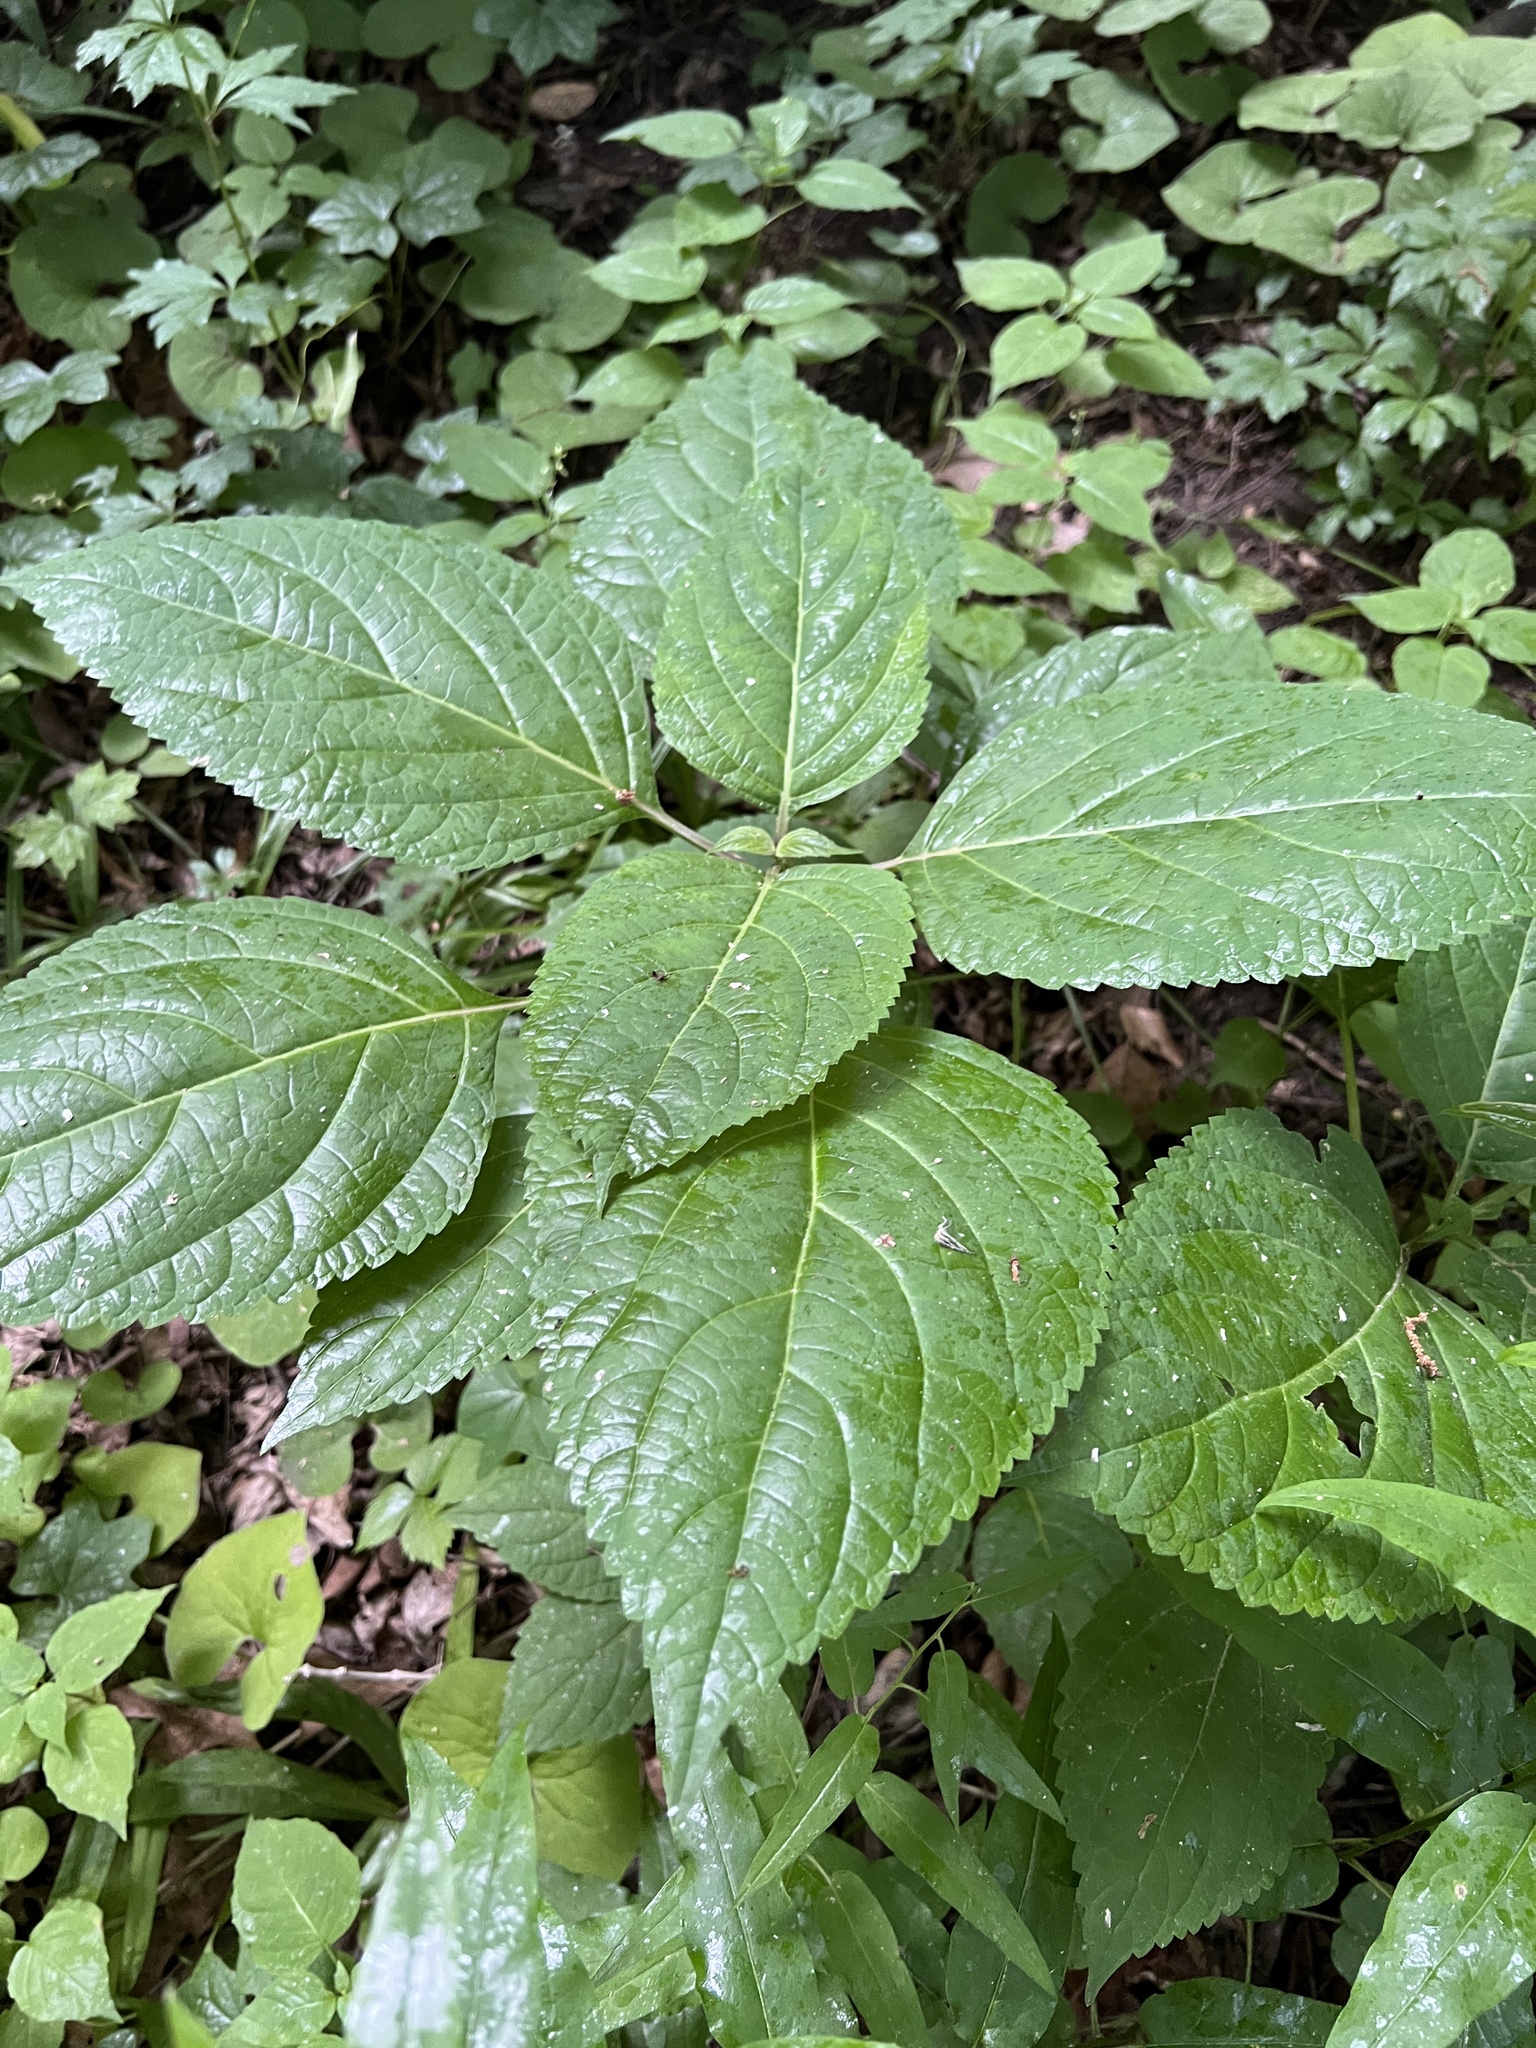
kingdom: Plantae
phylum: Tracheophyta
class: Magnoliopsida
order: Lamiales
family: Lamiaceae
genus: Collinsonia
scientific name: Collinsonia canadensis
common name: Northern horsebalm
